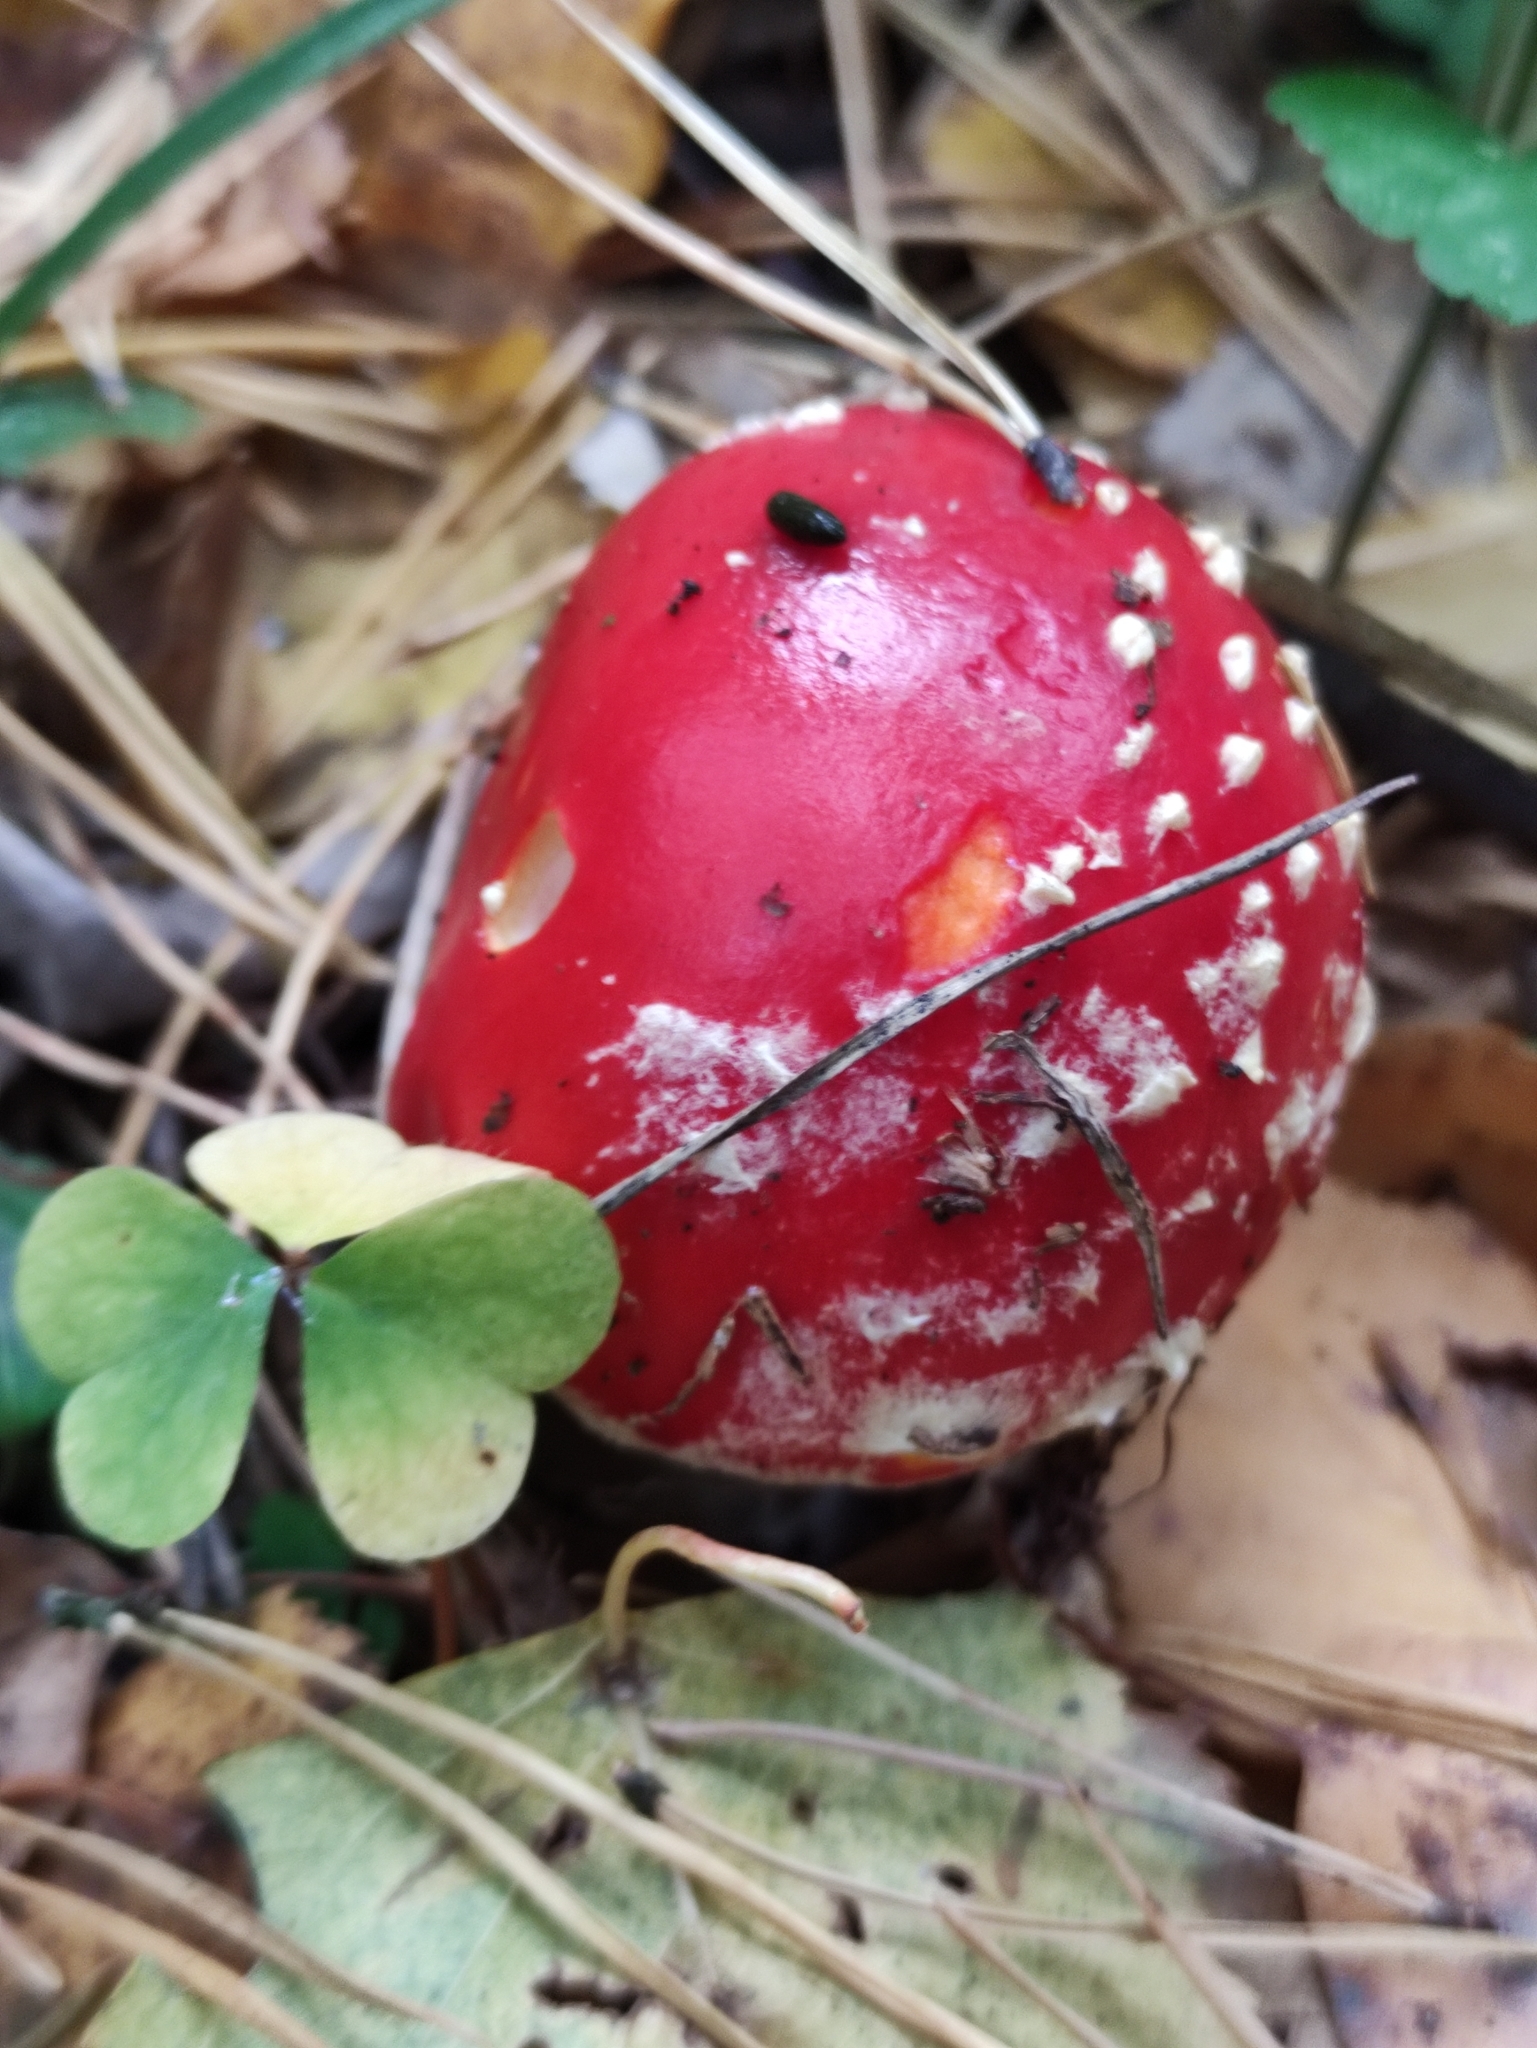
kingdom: Fungi
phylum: Basidiomycota
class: Agaricomycetes
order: Agaricales
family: Amanitaceae
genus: Amanita
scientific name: Amanita muscaria
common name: Fly agaric
